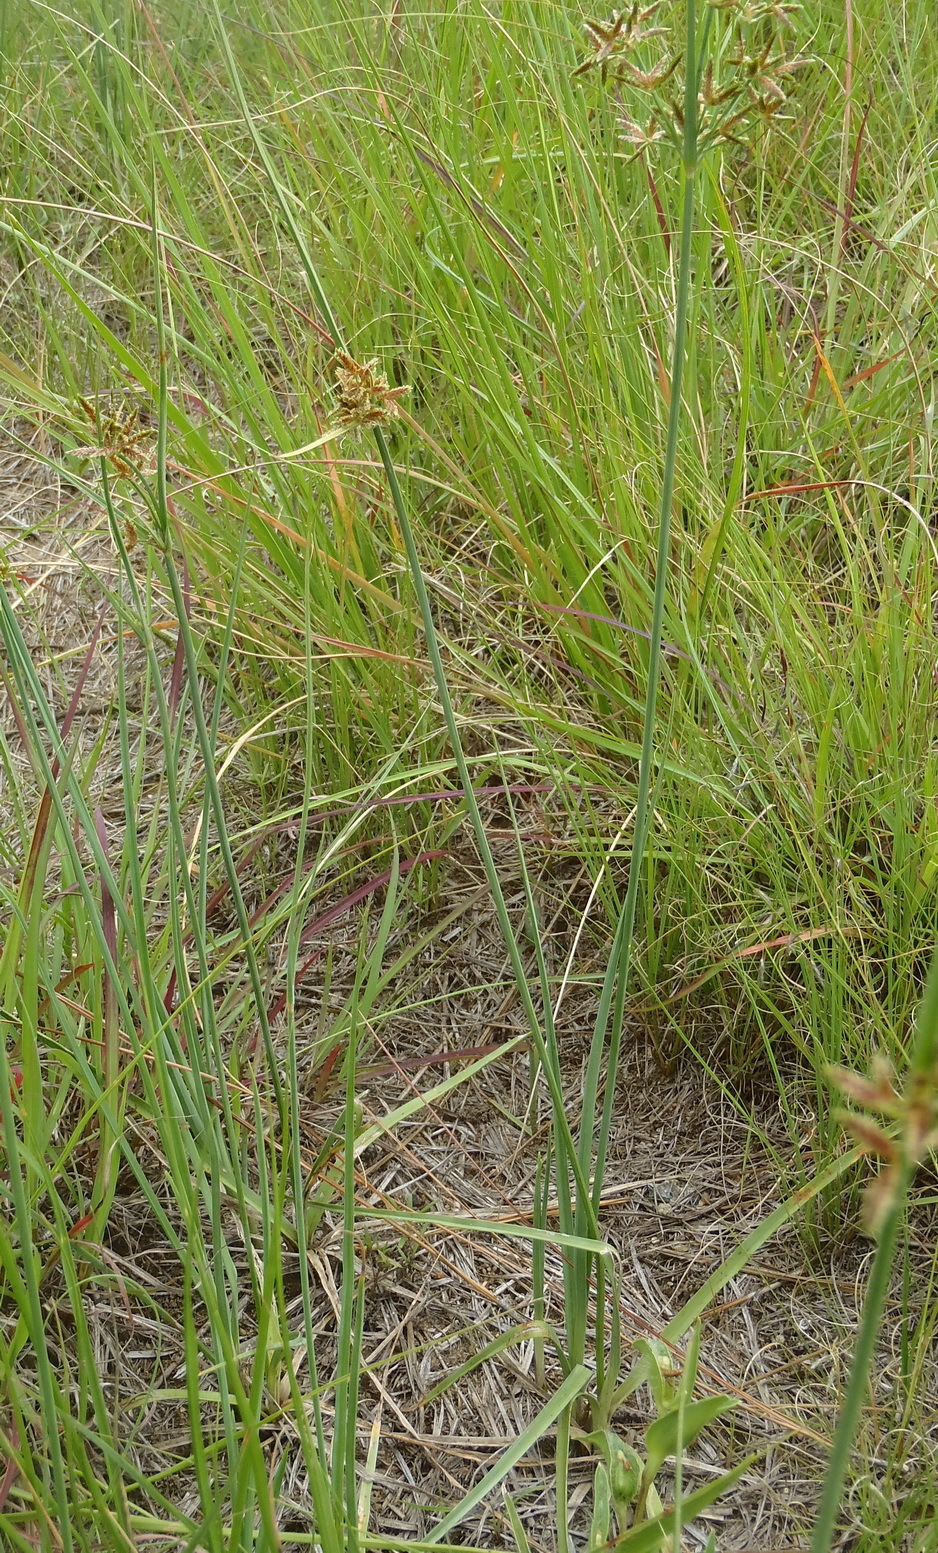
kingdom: Plantae
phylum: Tracheophyta
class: Liliopsida
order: Poales
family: Cyperaceae
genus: Cyperus
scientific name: Cyperus sphaerospermus
